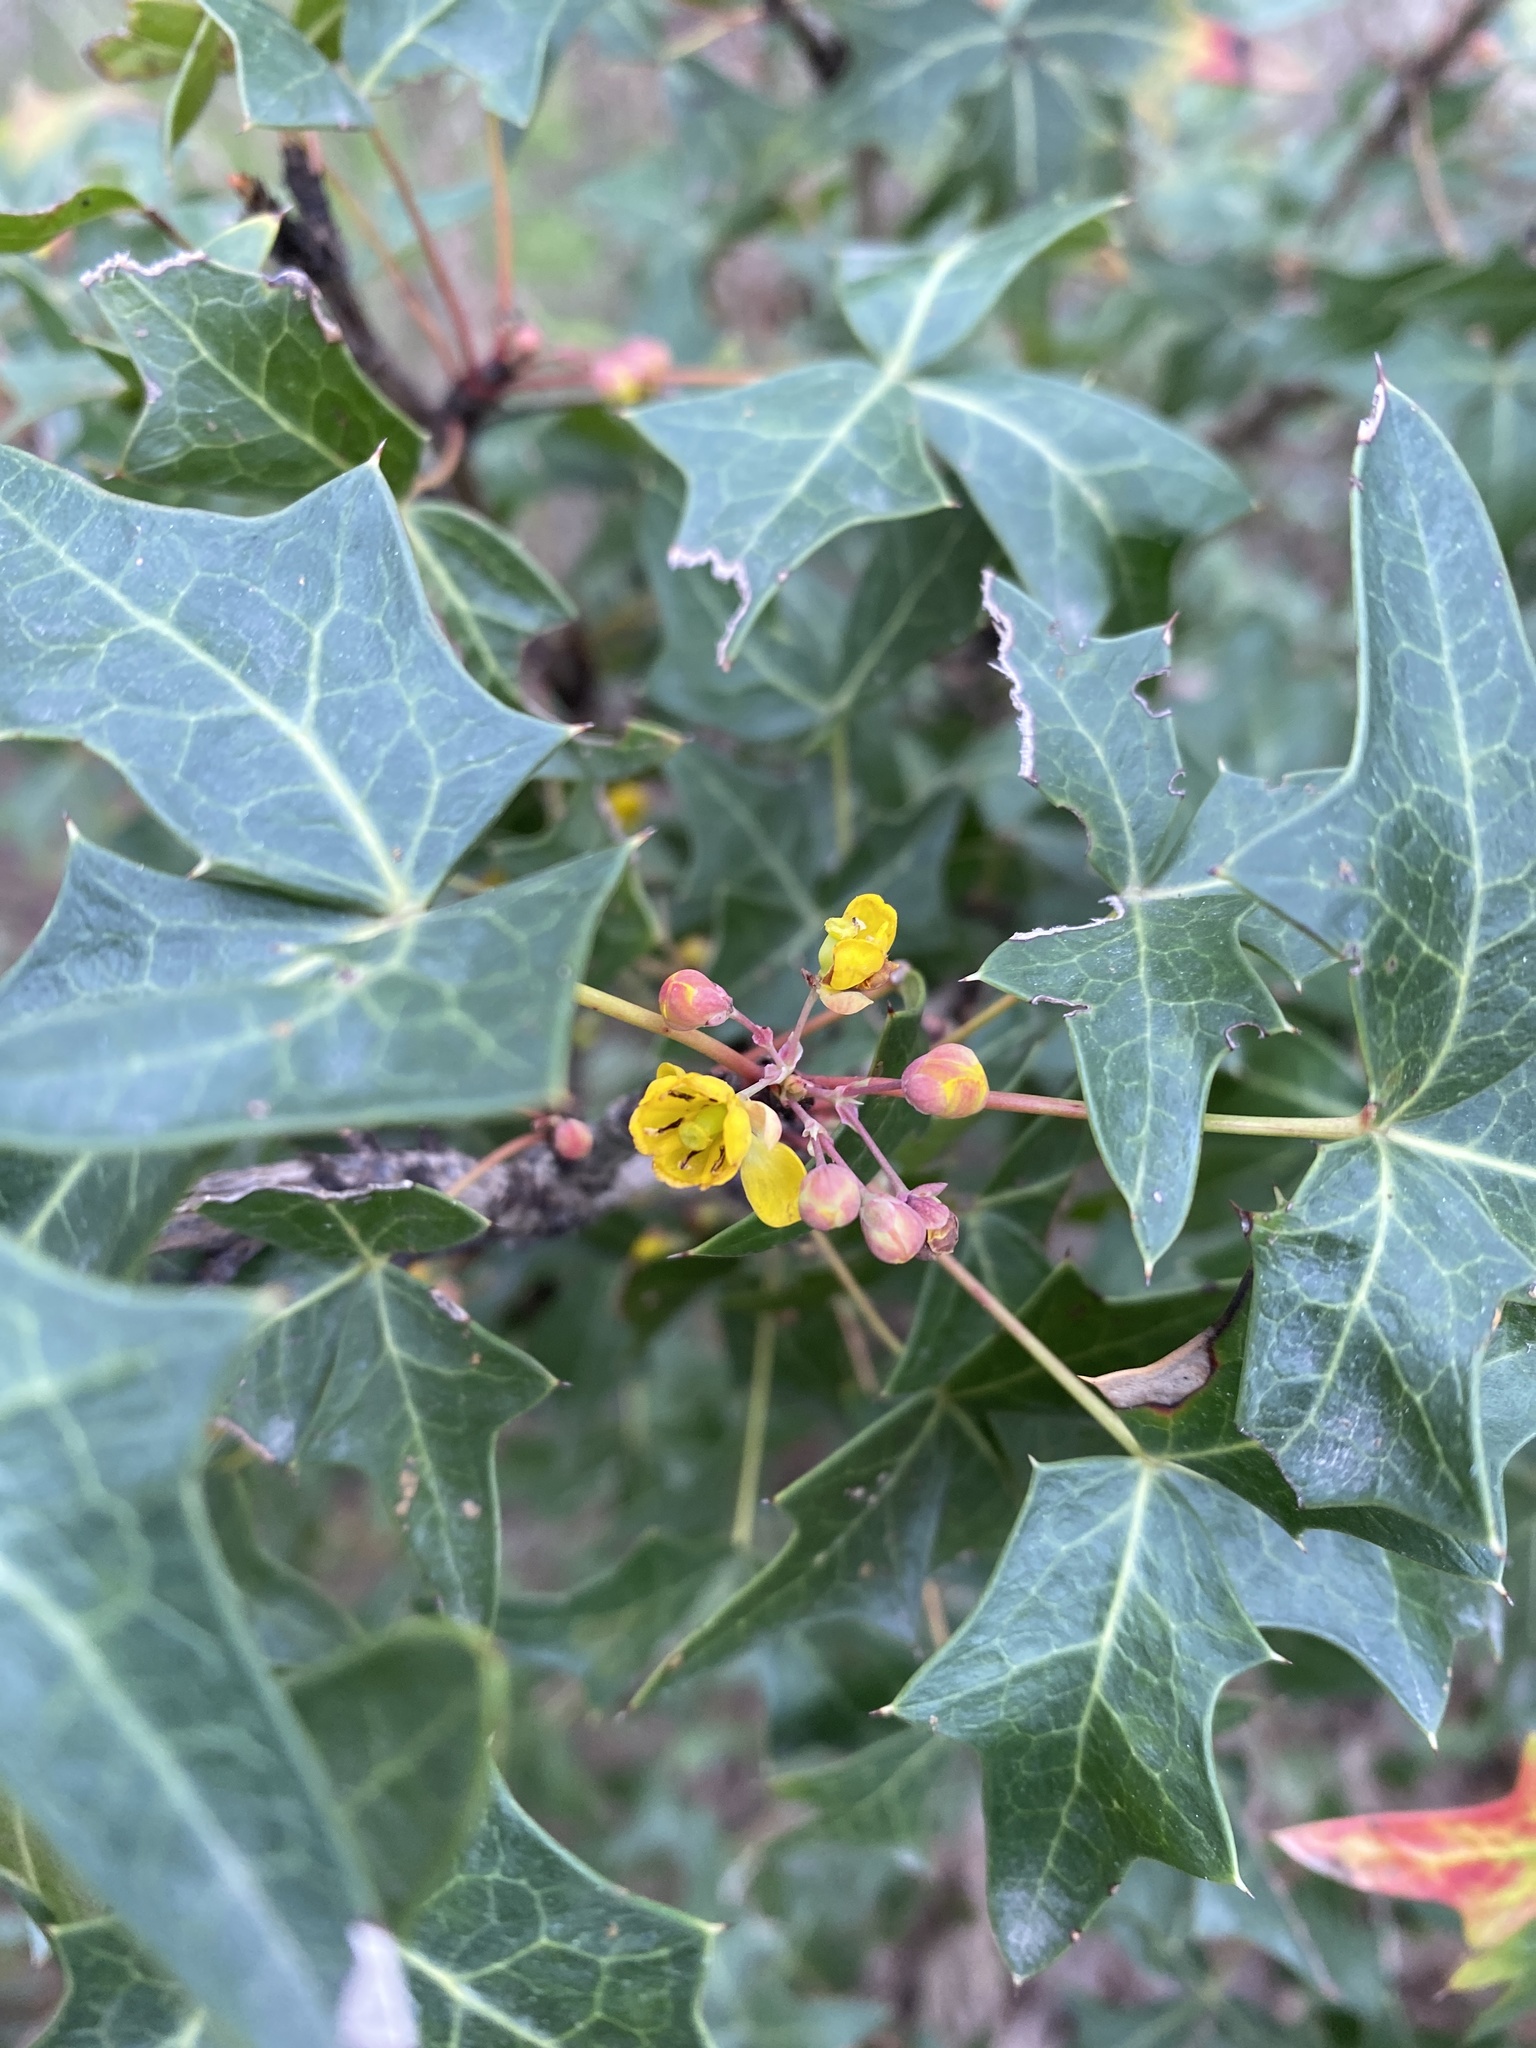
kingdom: Plantae
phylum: Tracheophyta
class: Magnoliopsida
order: Ranunculales
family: Berberidaceae
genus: Alloberberis
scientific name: Alloberberis trifoliolata
